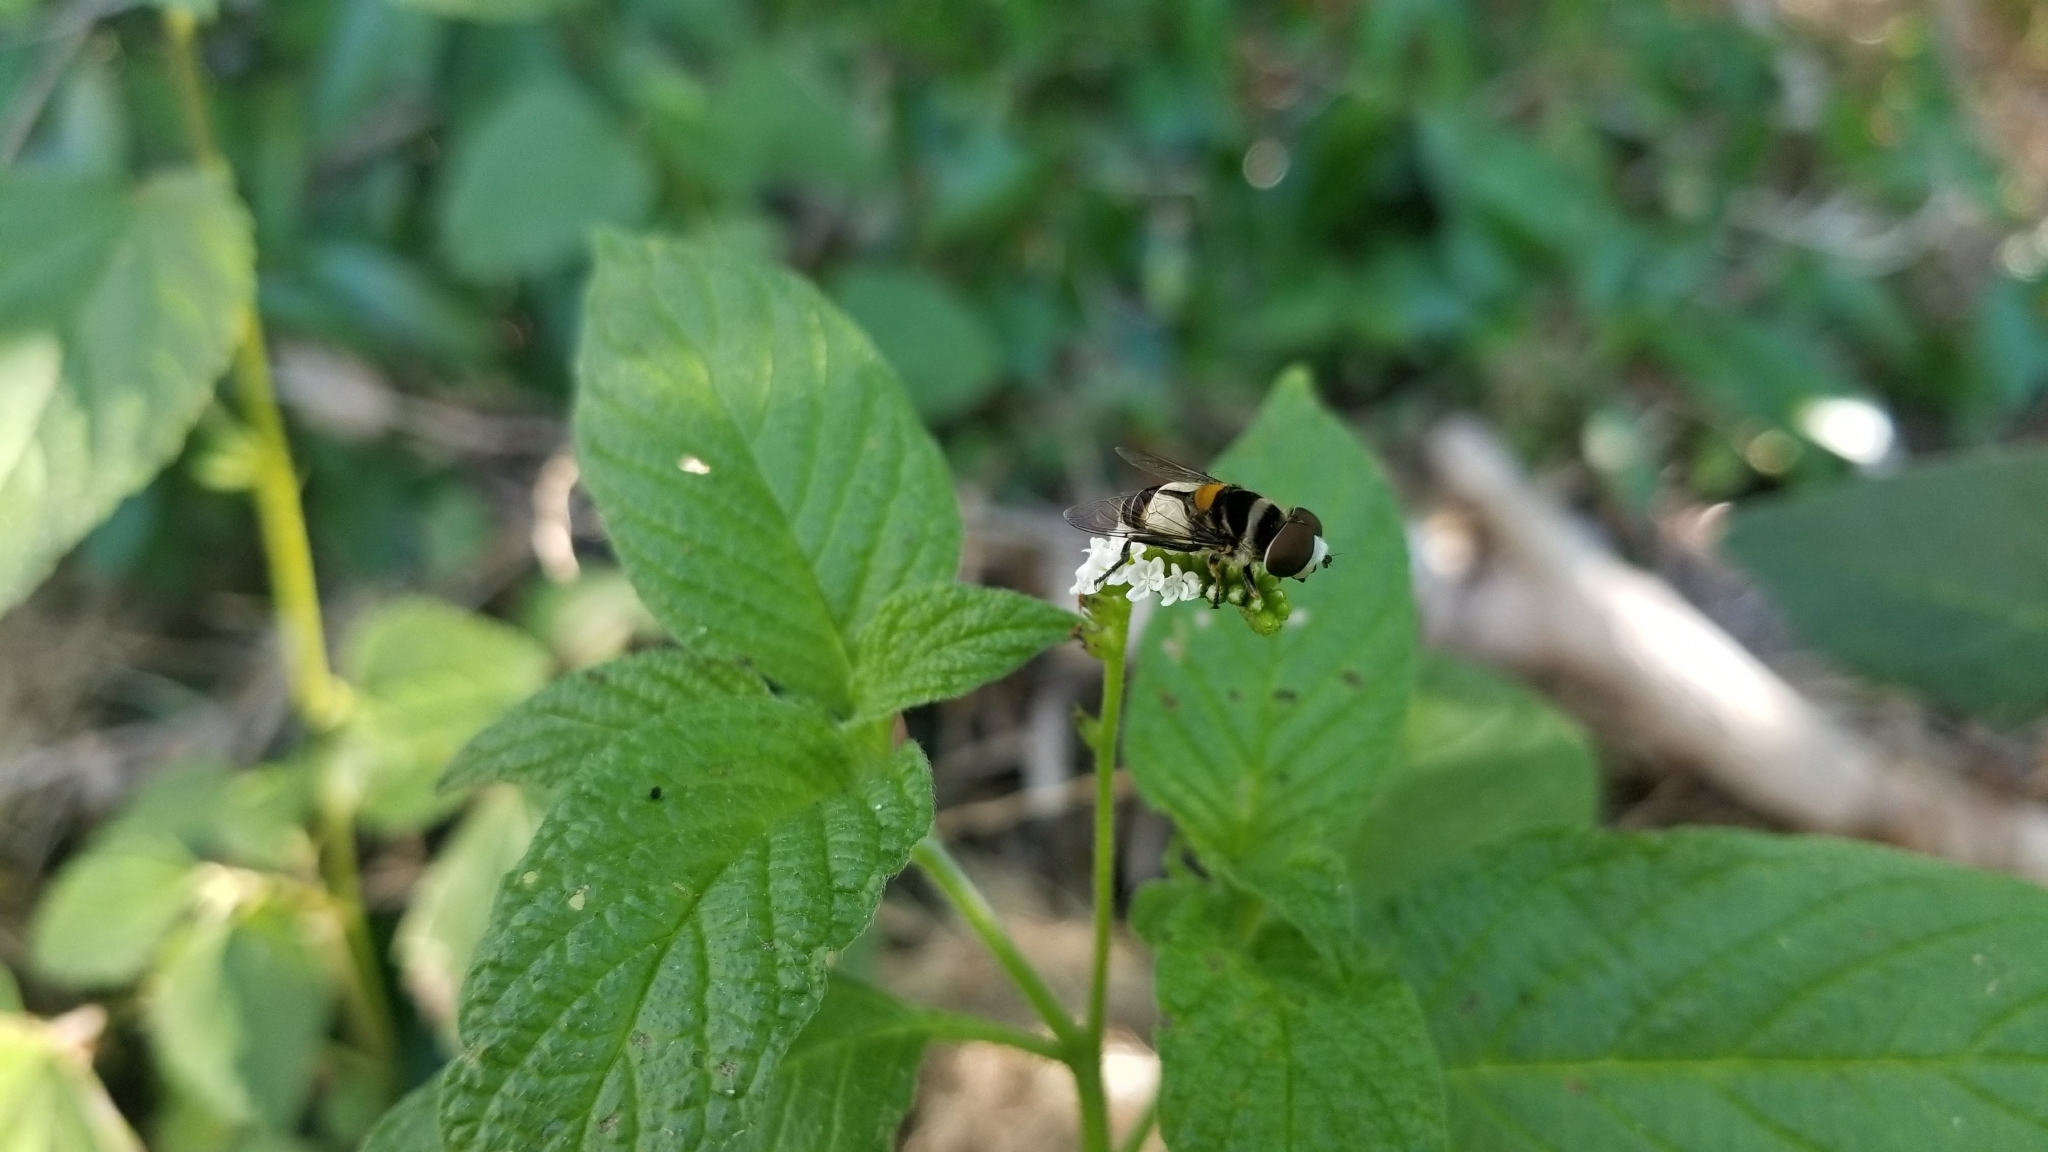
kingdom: Animalia
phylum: Arthropoda
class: Insecta
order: Diptera
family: Syrphidae
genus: Palpada
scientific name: Palpada albifrons
